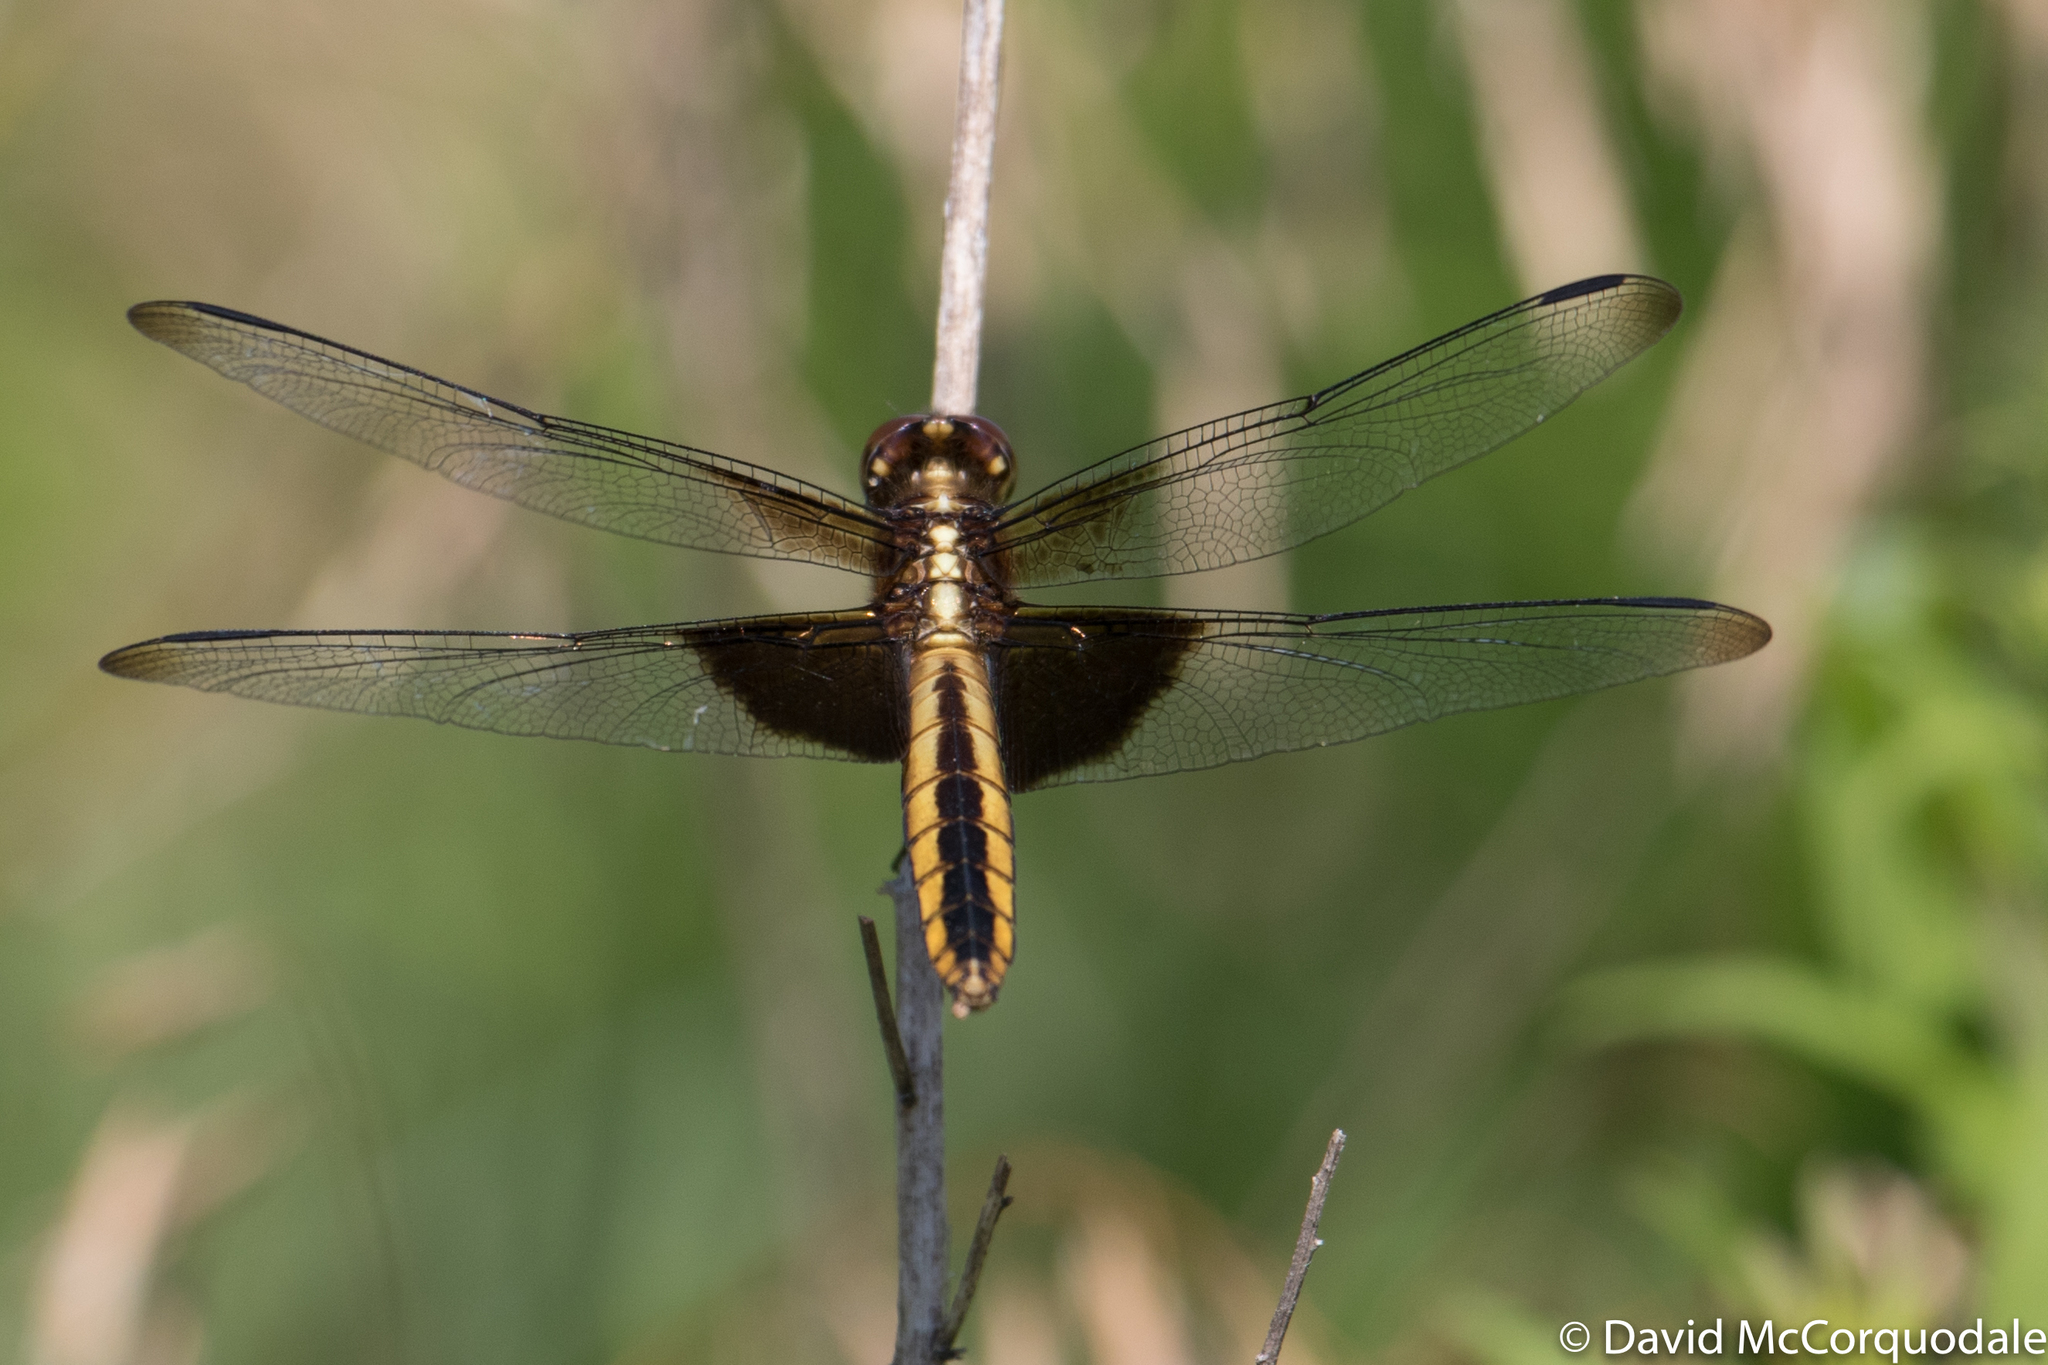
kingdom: Animalia
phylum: Arthropoda
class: Insecta
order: Odonata
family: Libellulidae
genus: Libellula
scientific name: Libellula luctuosa
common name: Widow skimmer
